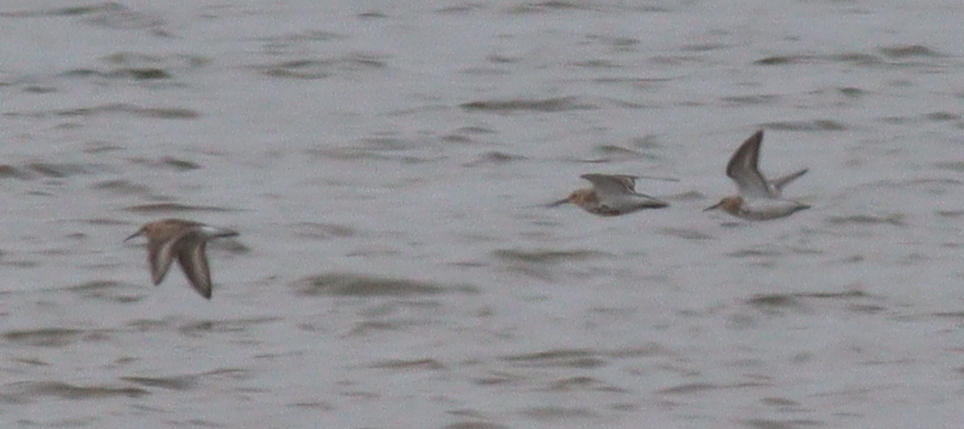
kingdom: Animalia
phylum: Chordata
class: Aves
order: Charadriiformes
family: Scolopacidae
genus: Calidris
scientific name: Calidris alpina
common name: Dunlin
